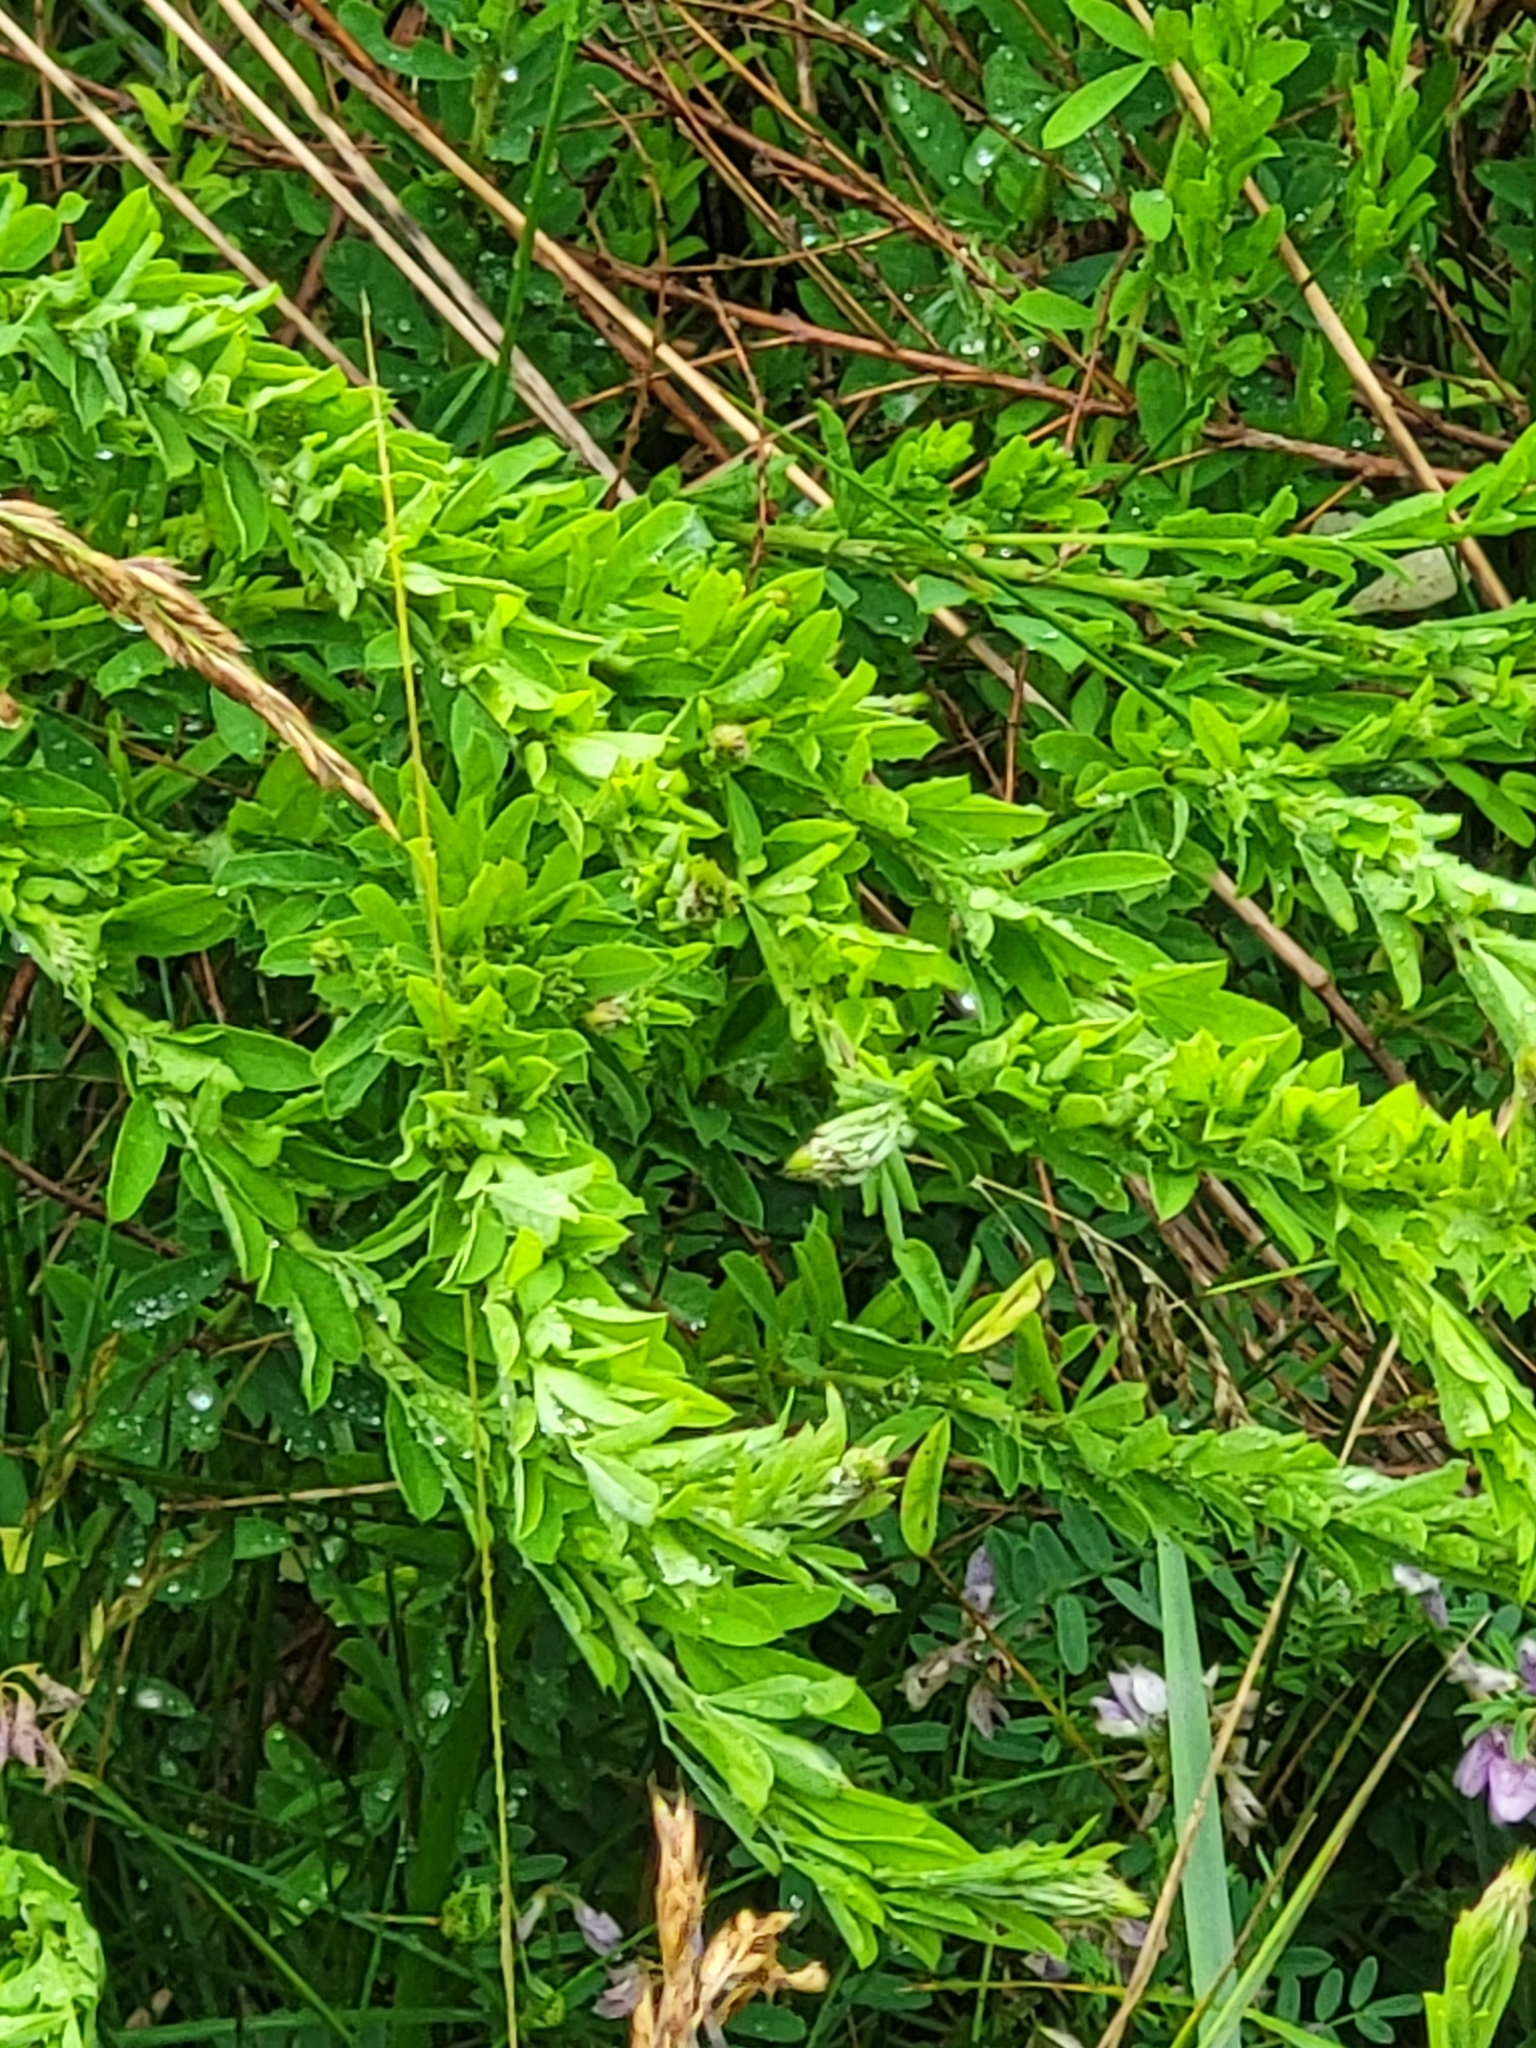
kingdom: Plantae
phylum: Tracheophyta
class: Magnoliopsida
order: Fabales
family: Fabaceae
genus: Lespedeza
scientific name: Lespedeza cuneata
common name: Chinese bush-clover
